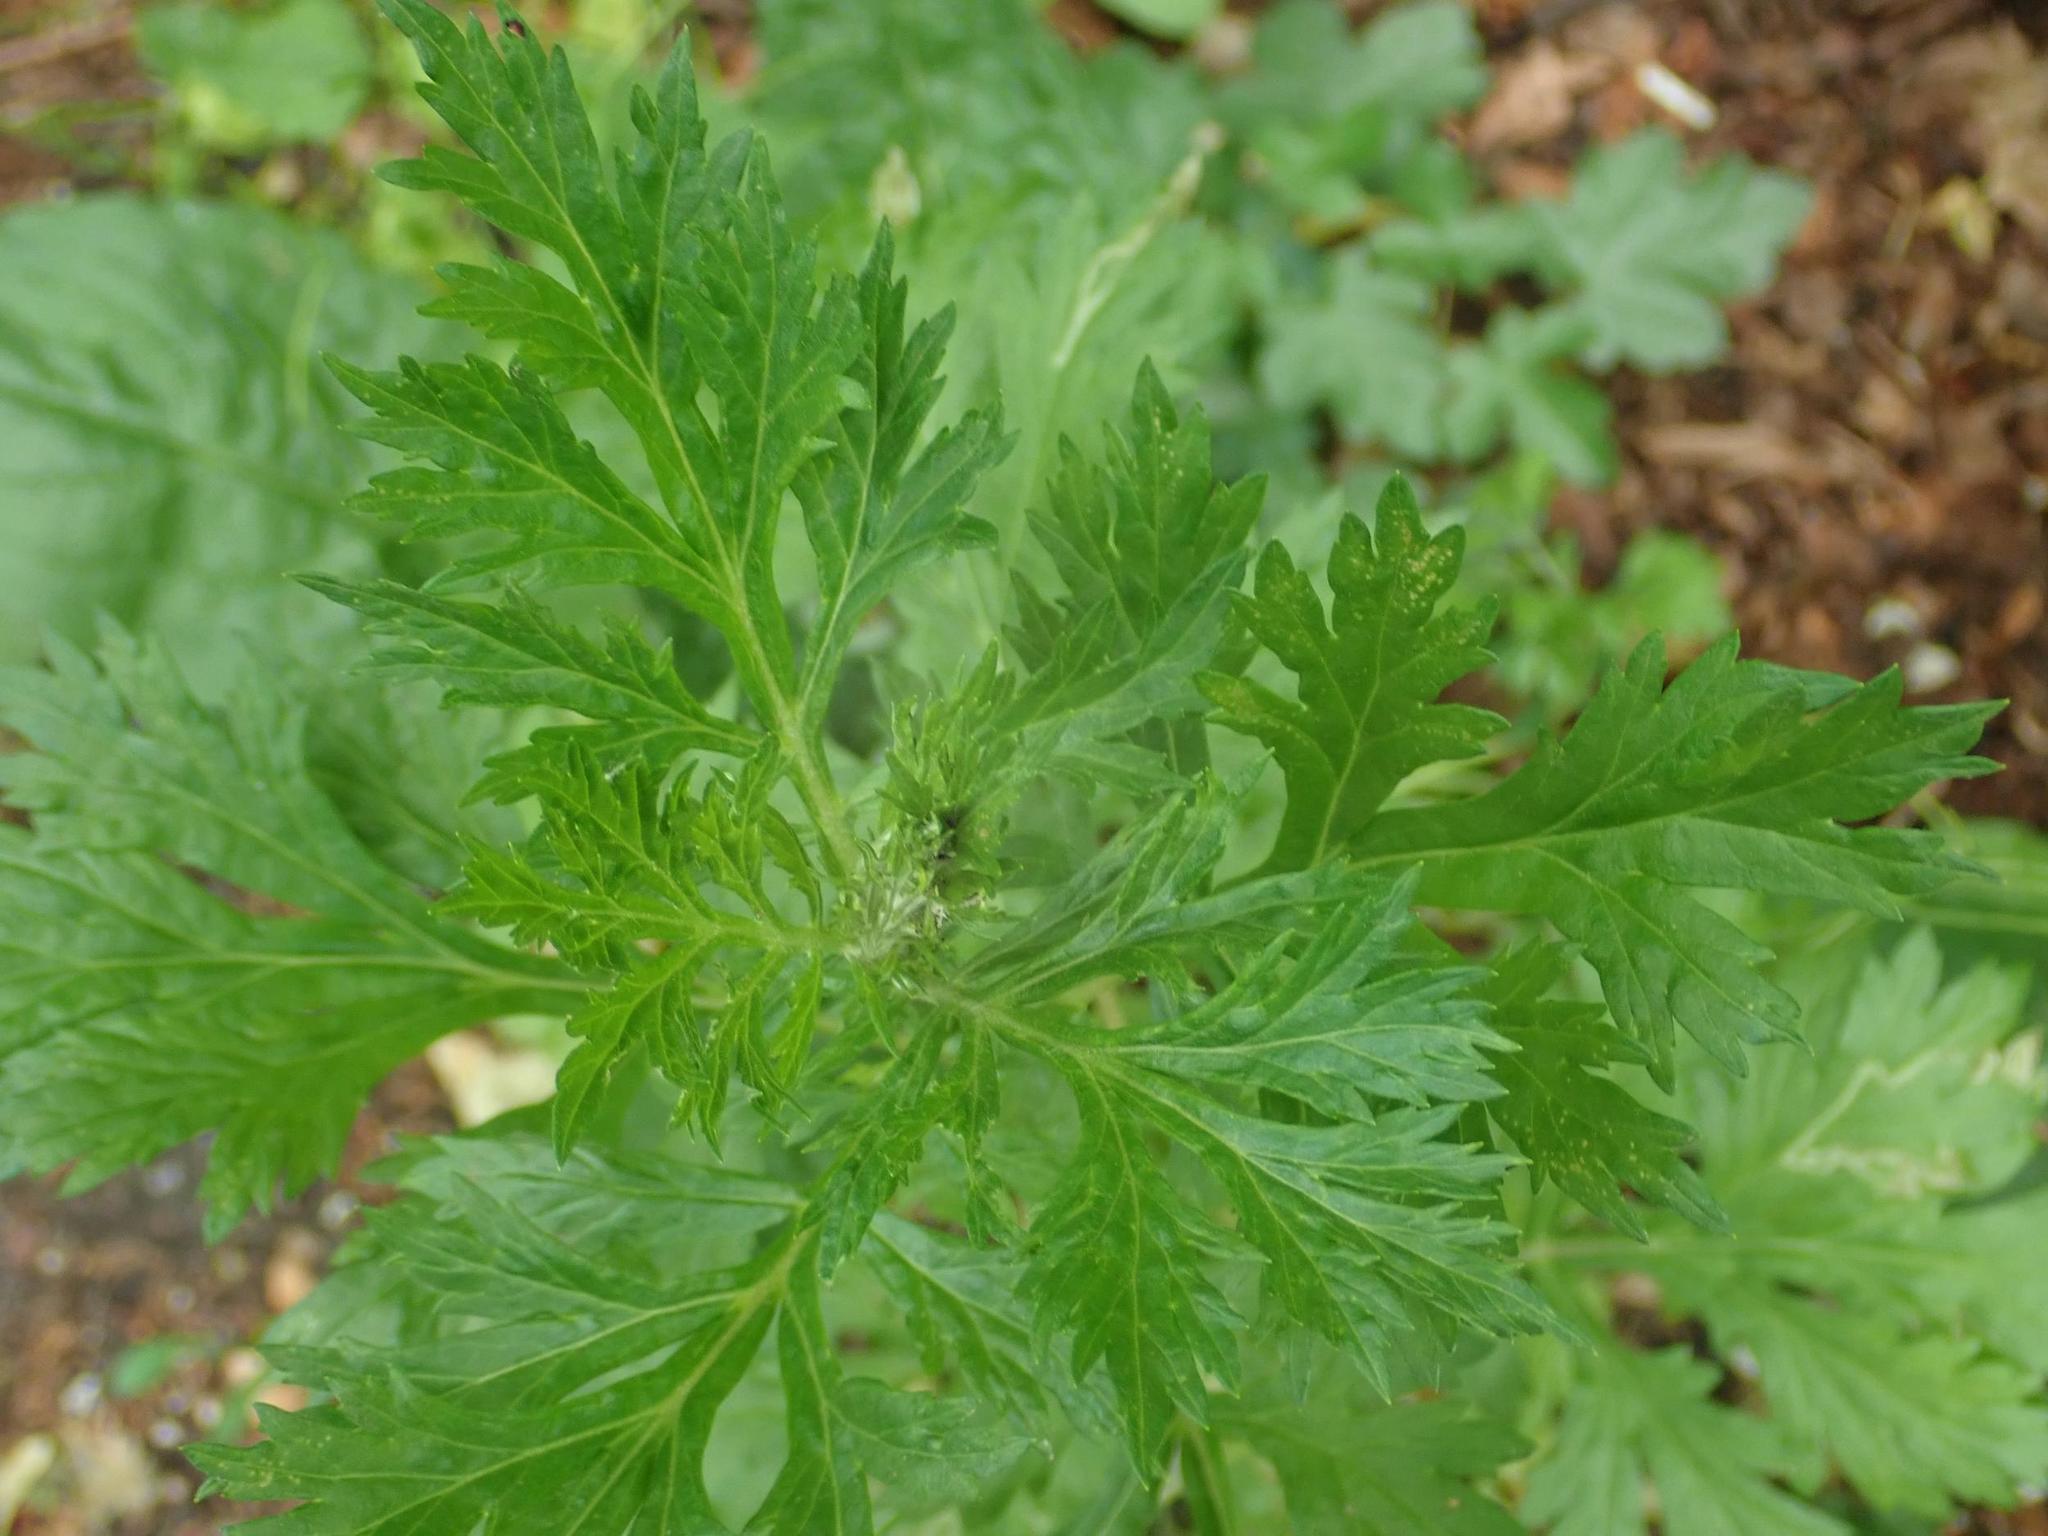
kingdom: Plantae
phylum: Tracheophyta
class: Magnoliopsida
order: Asterales
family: Asteraceae
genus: Artemisia
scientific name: Artemisia vulgaris
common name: Mugwort
